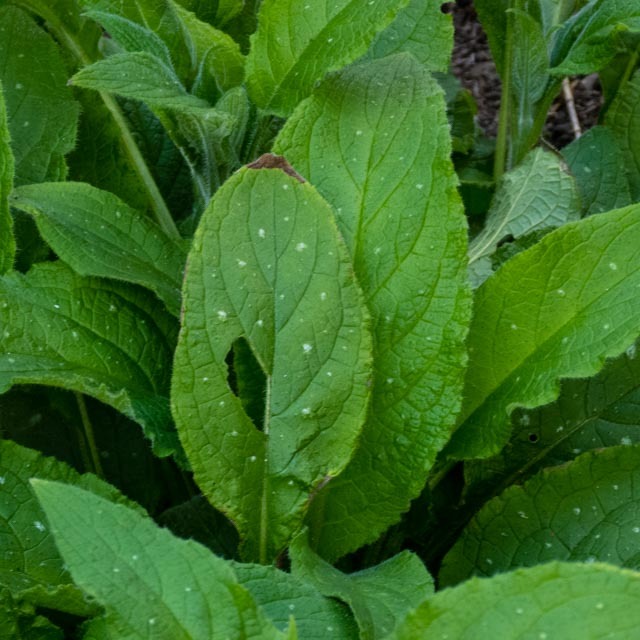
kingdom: Plantae
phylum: Tracheophyta
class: Magnoliopsida
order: Boraginales
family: Boraginaceae
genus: Pentaglottis
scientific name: Pentaglottis sempervirens
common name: Green alkanet
